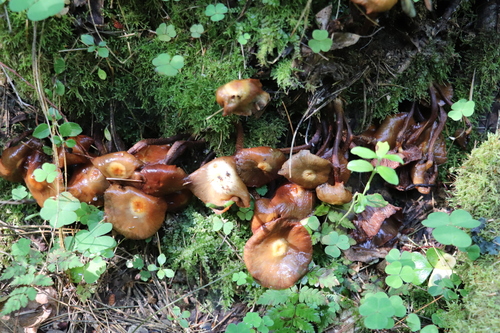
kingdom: Fungi
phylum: Basidiomycota
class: Agaricomycetes
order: Agaricales
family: Strophariaceae
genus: Kuehneromyces
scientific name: Kuehneromyces mutabilis
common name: Sheathed woodtuft
